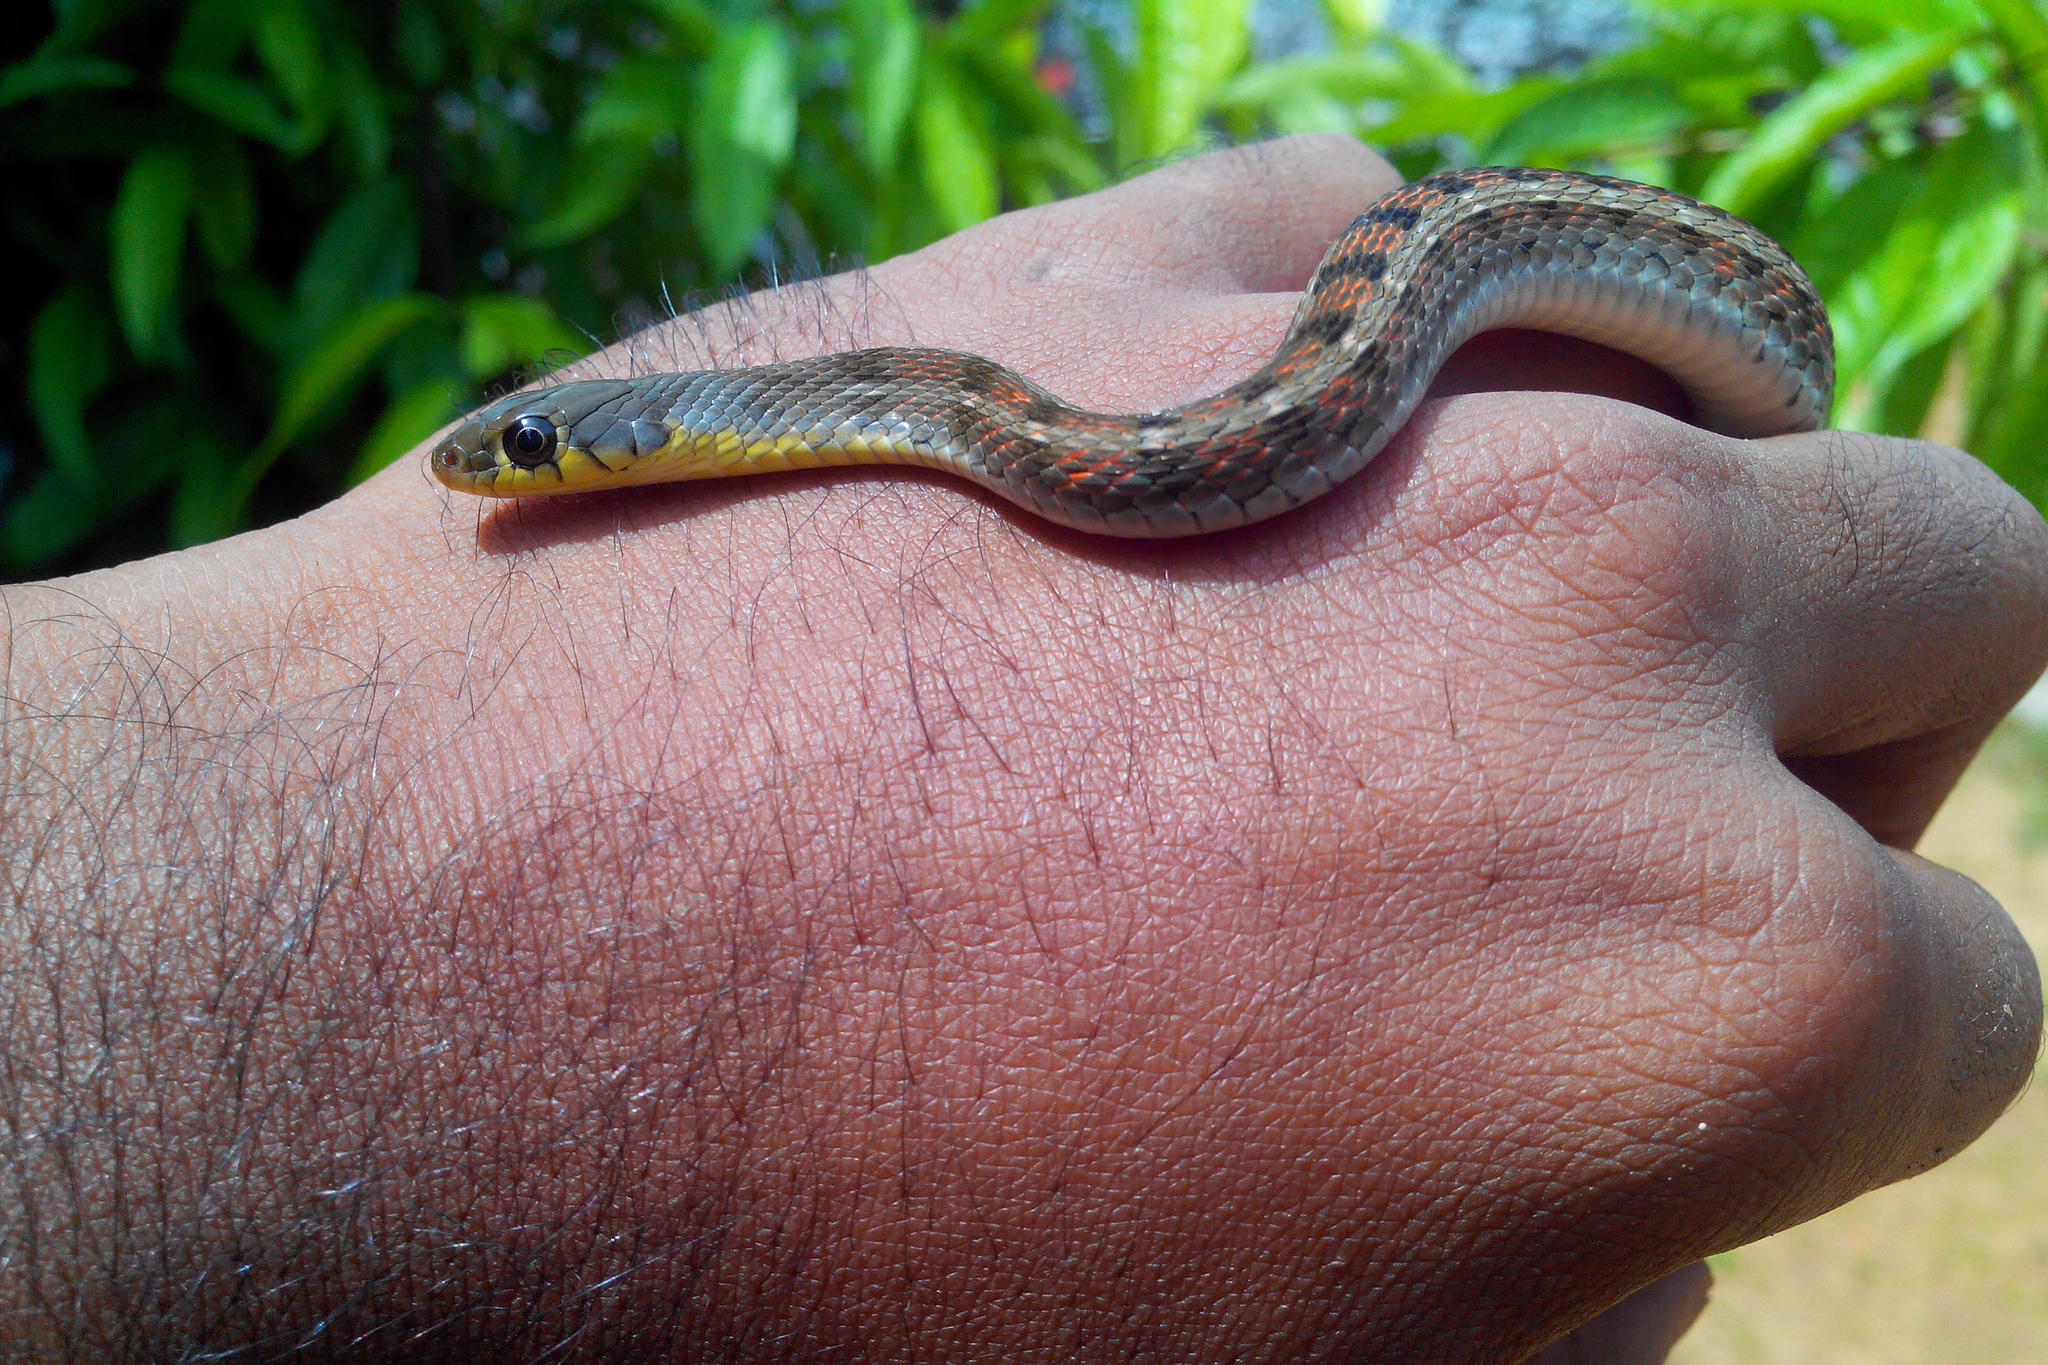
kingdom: Animalia
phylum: Chordata
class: Squamata
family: Colubridae
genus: Amphiesma
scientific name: Amphiesma stolatum
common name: Buff striped keelback
